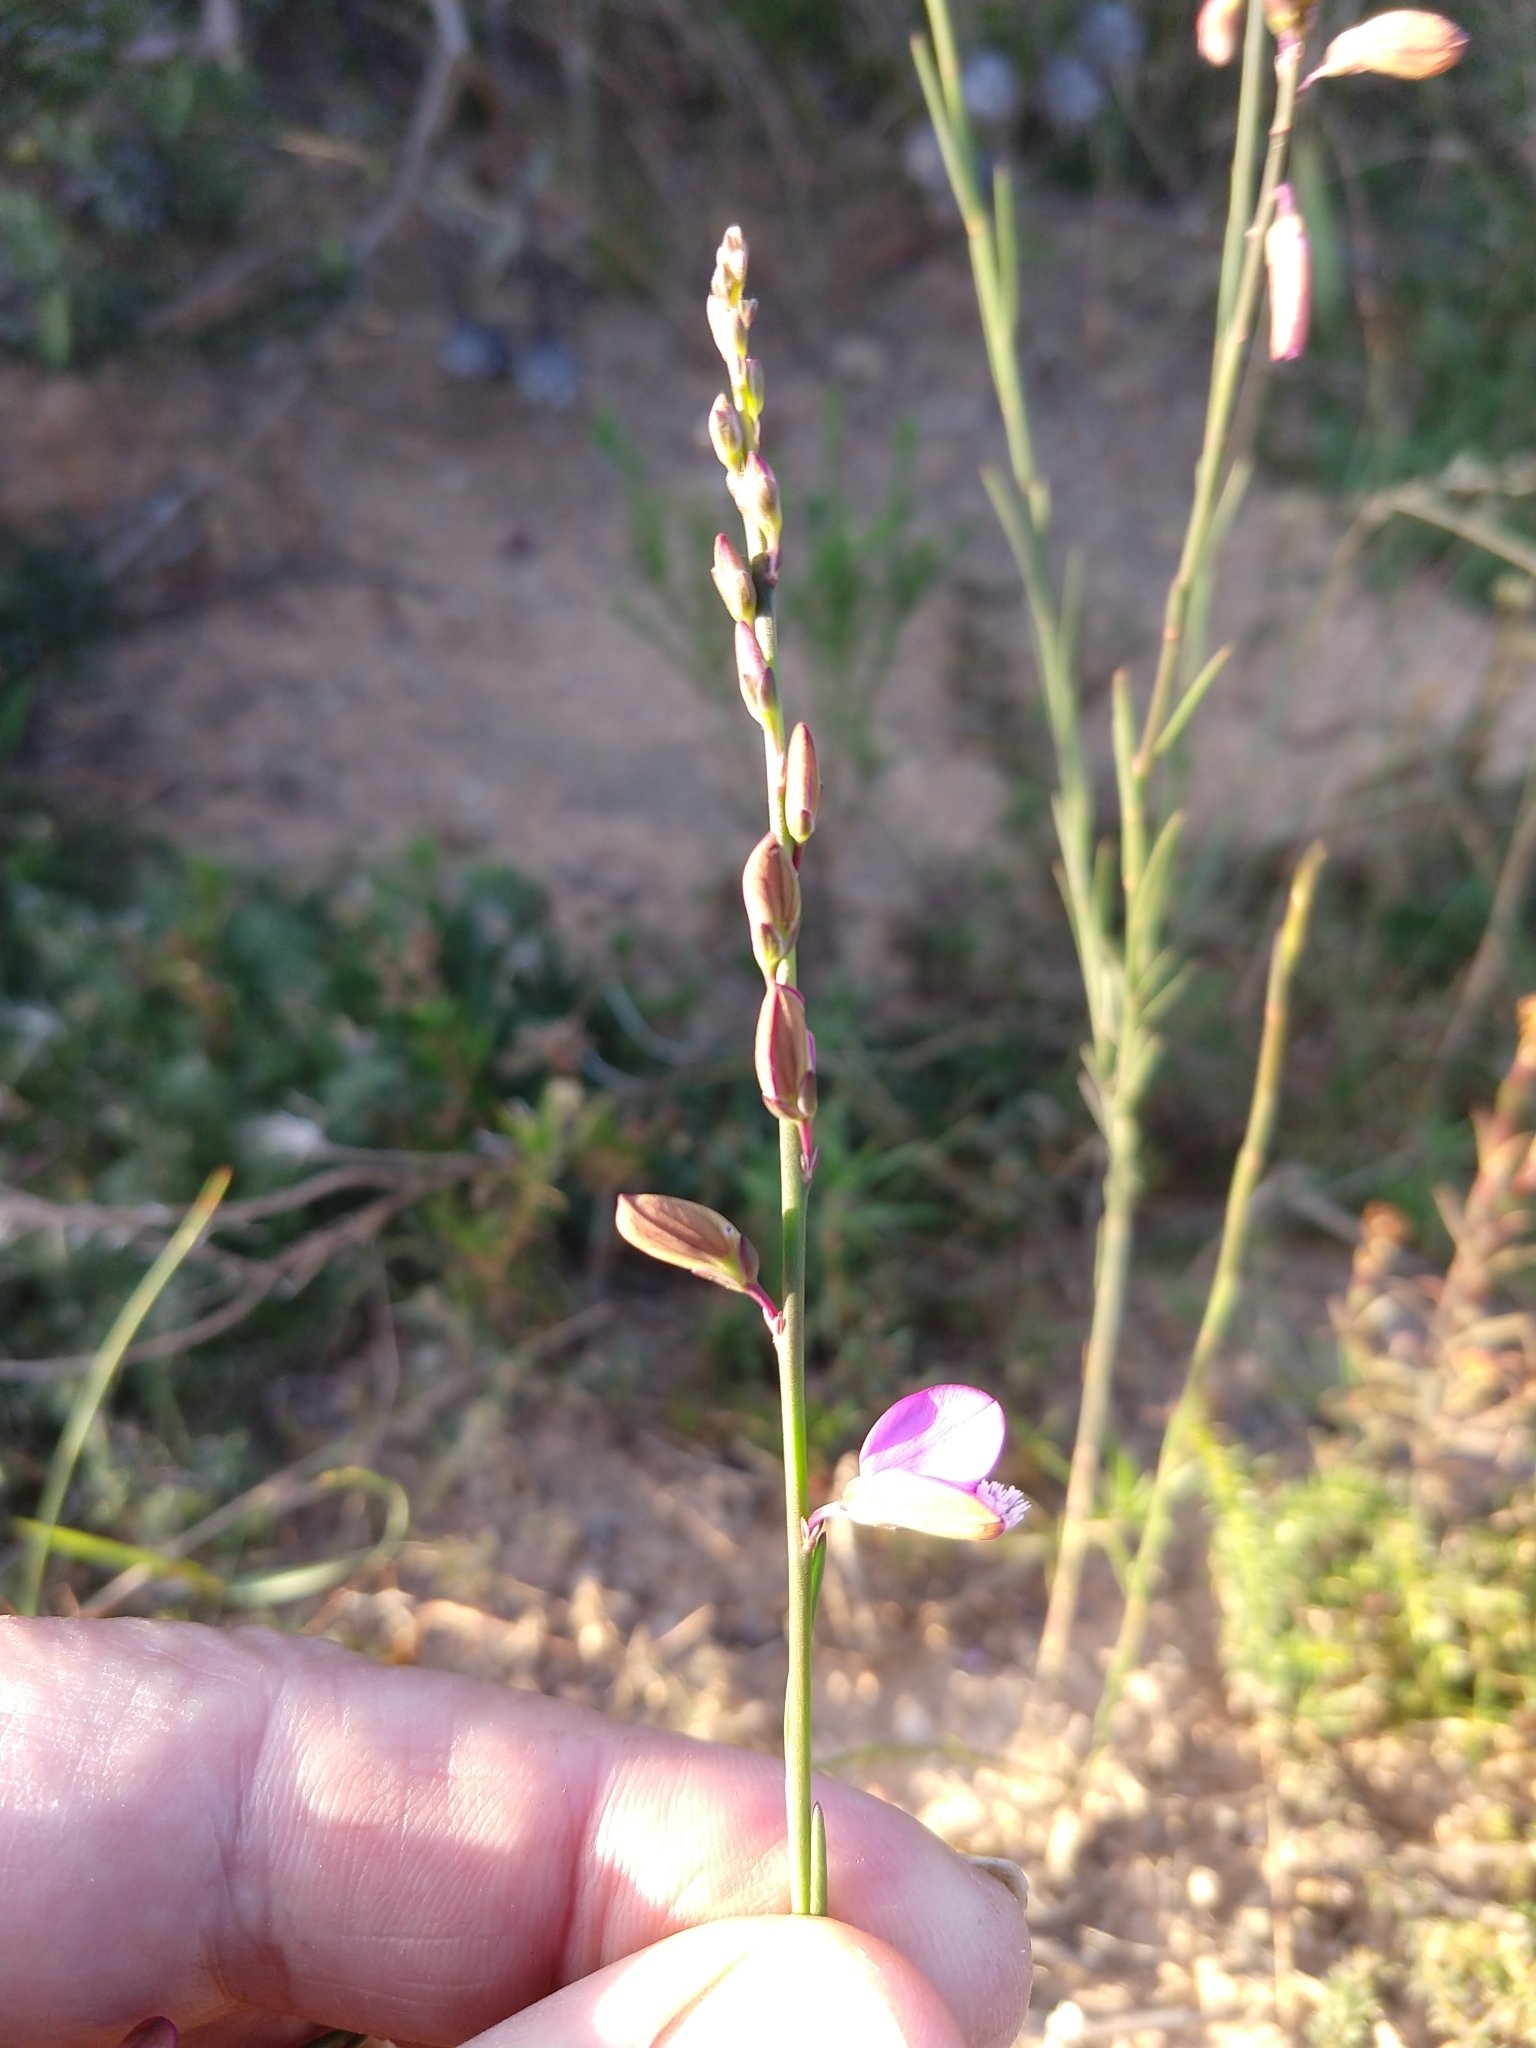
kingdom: Plantae
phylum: Tracheophyta
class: Magnoliopsida
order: Fabales
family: Polygalaceae
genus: Polygala
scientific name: Polygala garcini
